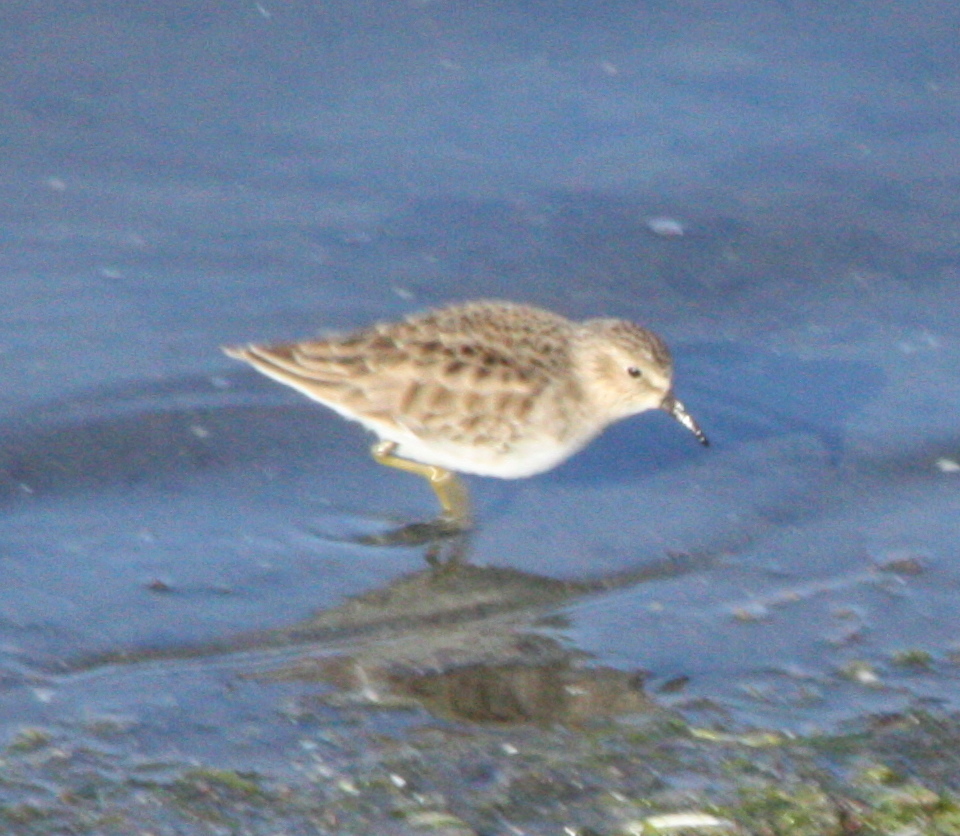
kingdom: Animalia
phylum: Chordata
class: Aves
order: Charadriiformes
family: Scolopacidae
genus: Calidris
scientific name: Calidris minutilla
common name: Least sandpiper
